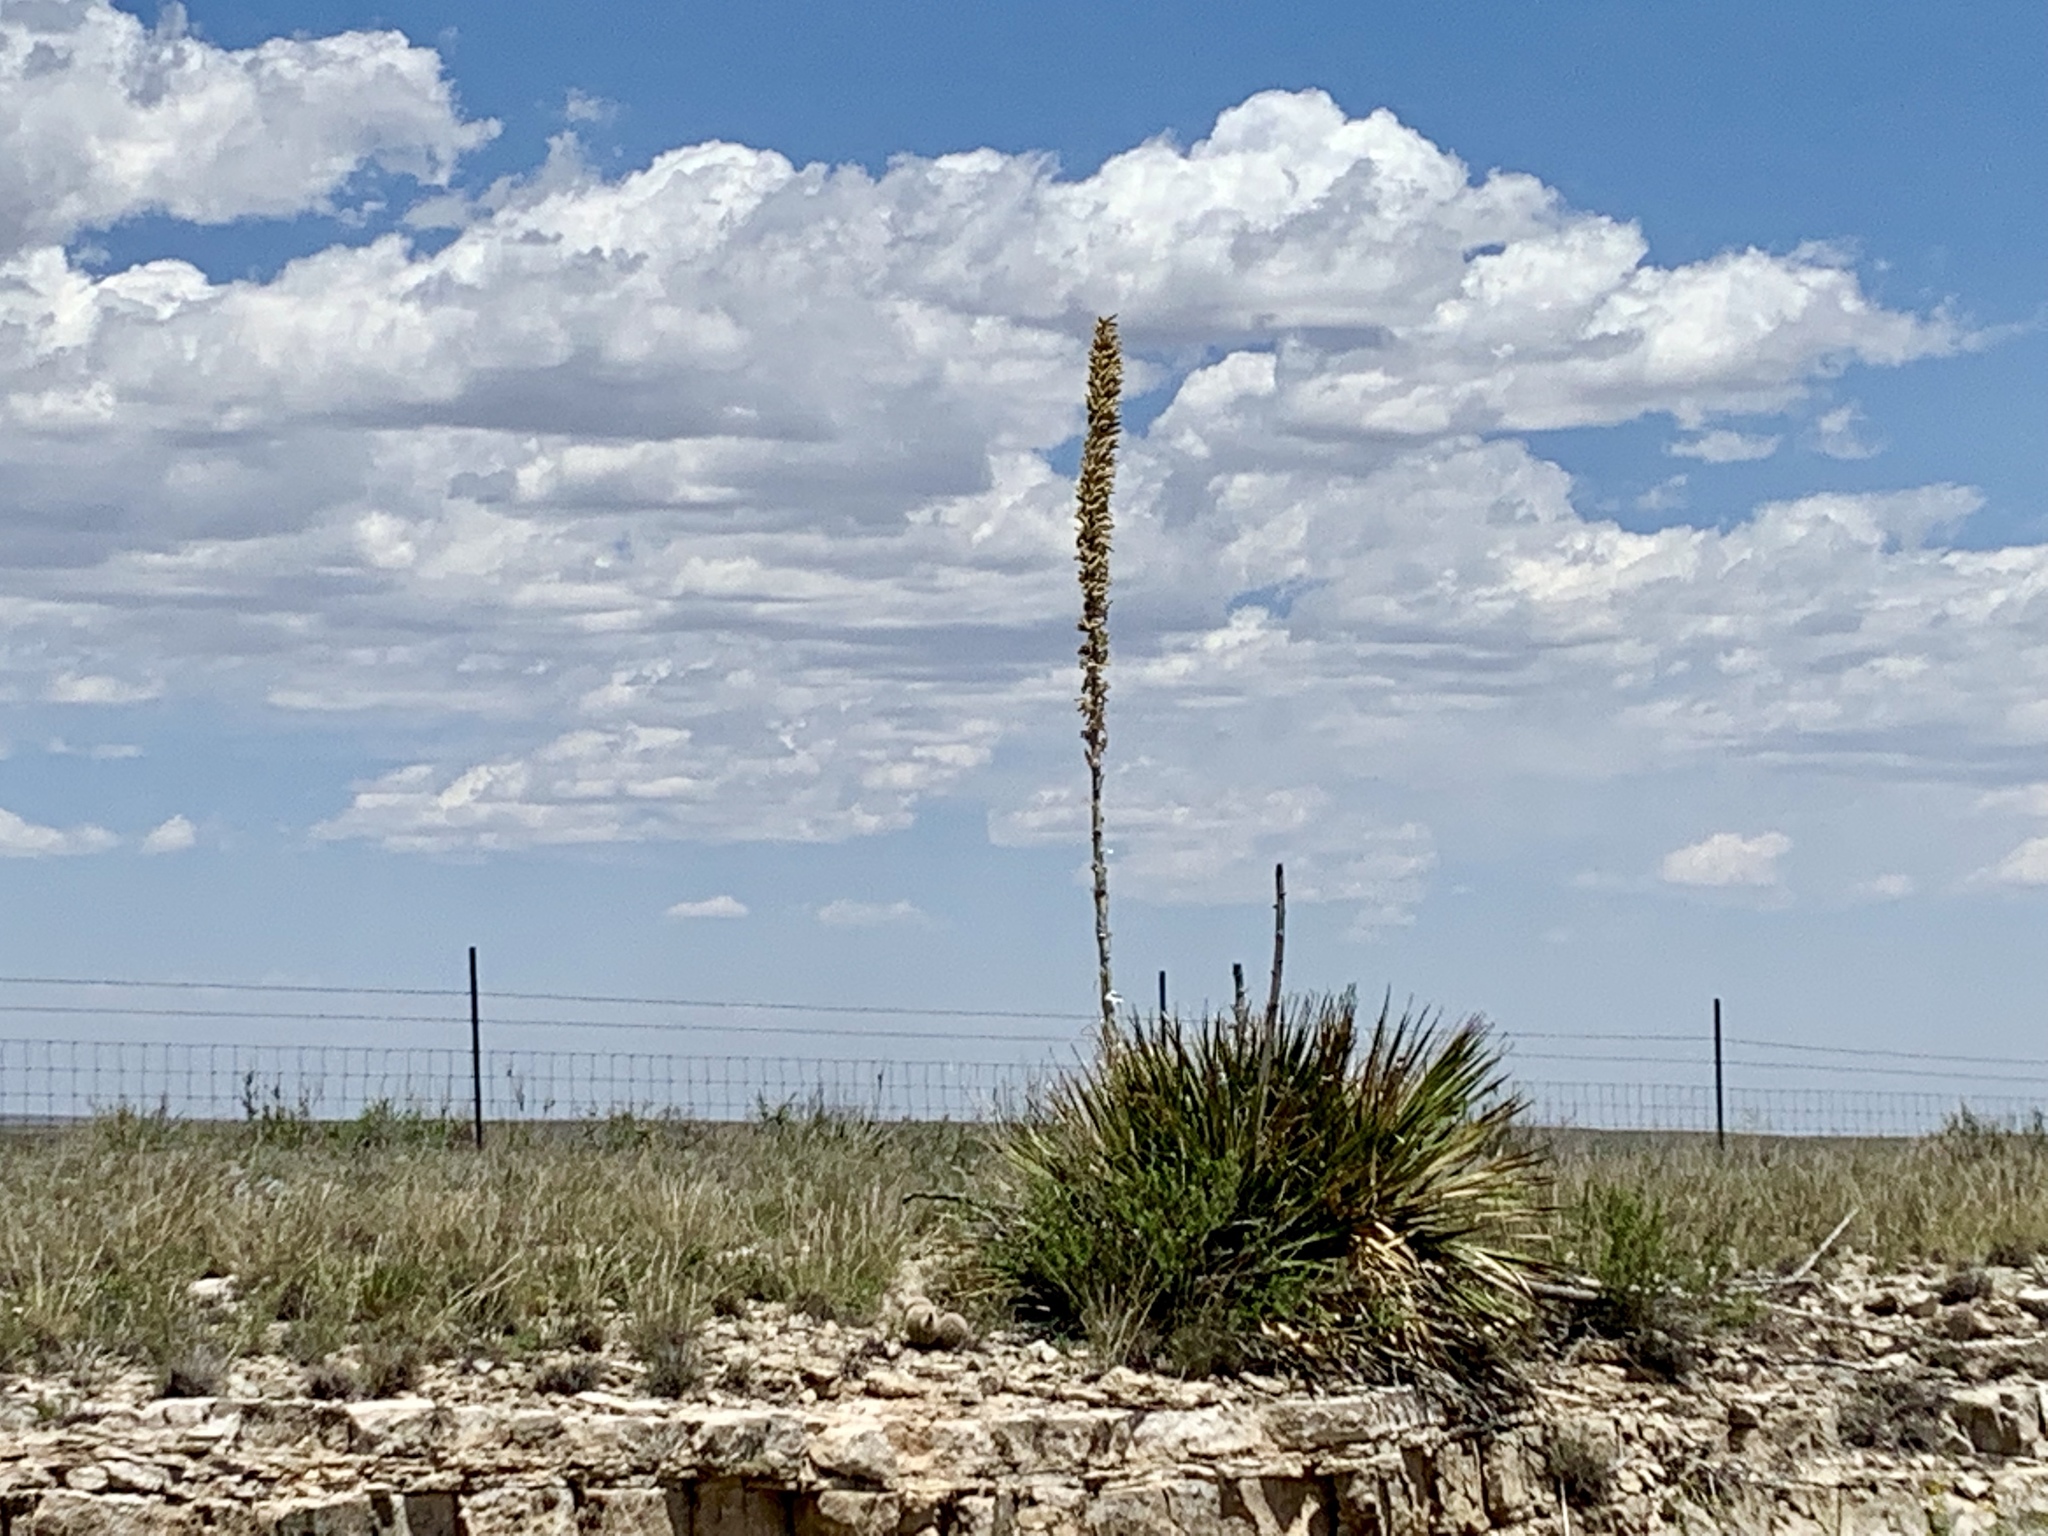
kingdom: Plantae
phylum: Tracheophyta
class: Liliopsida
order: Asparagales
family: Asparagaceae
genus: Dasylirion
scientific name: Dasylirion wheeleri
